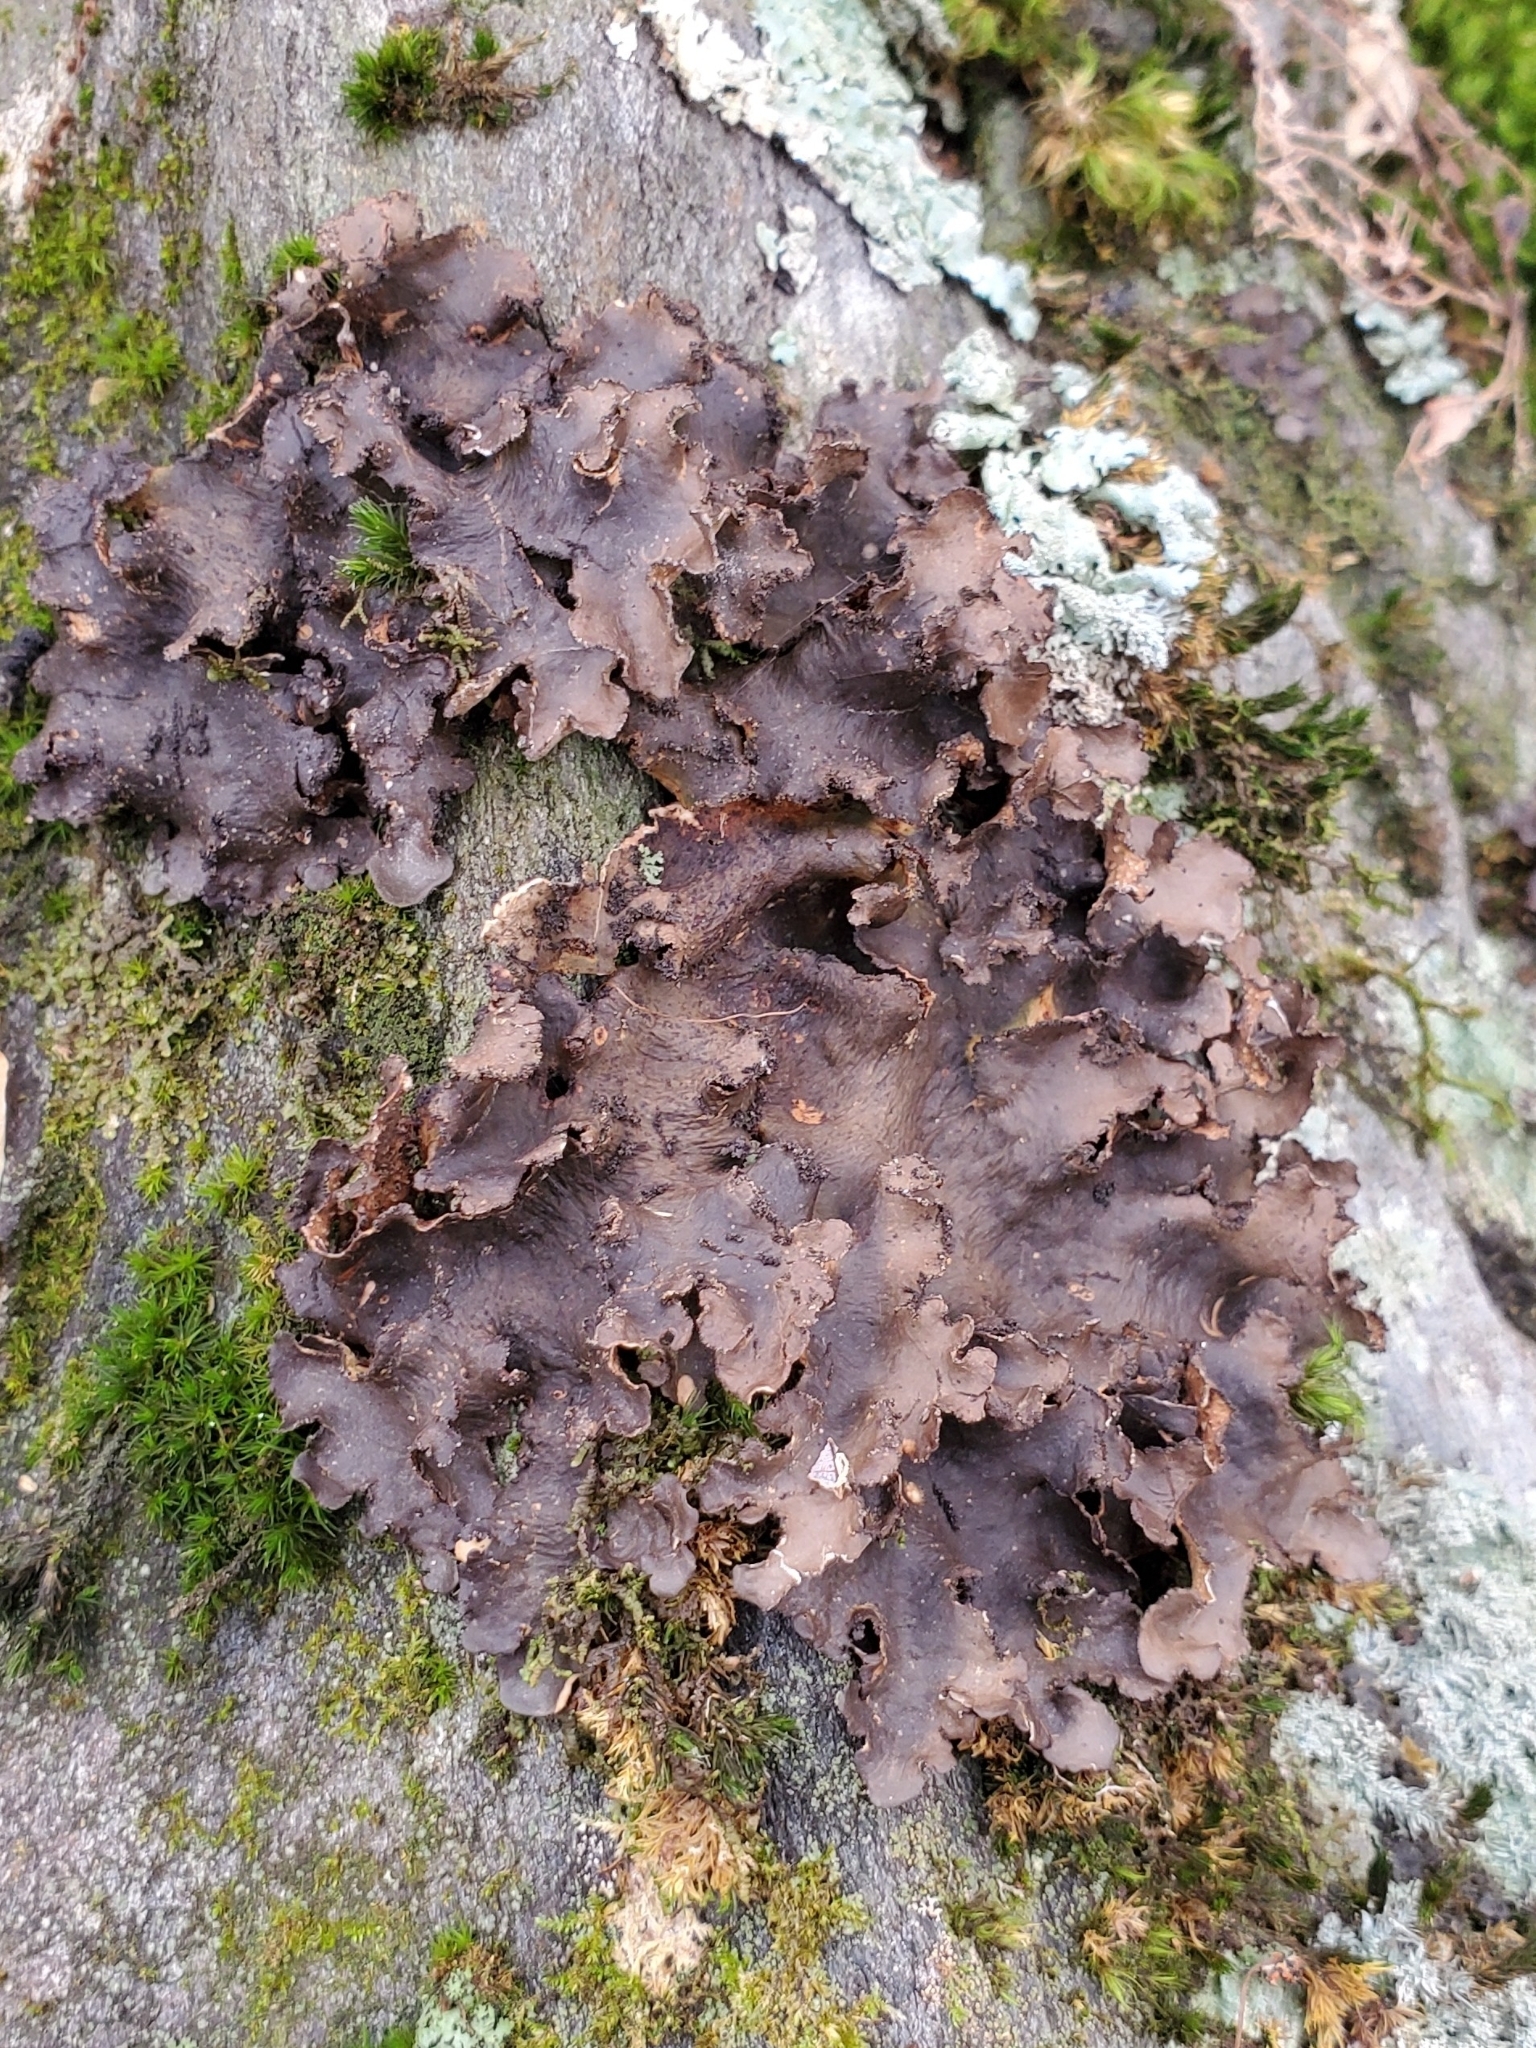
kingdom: Fungi
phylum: Ascomycota
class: Lecanoromycetes
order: Peltigerales
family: Peltigeraceae
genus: Peltigera
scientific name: Peltigera praetextata
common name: Scaly dog-lichen
